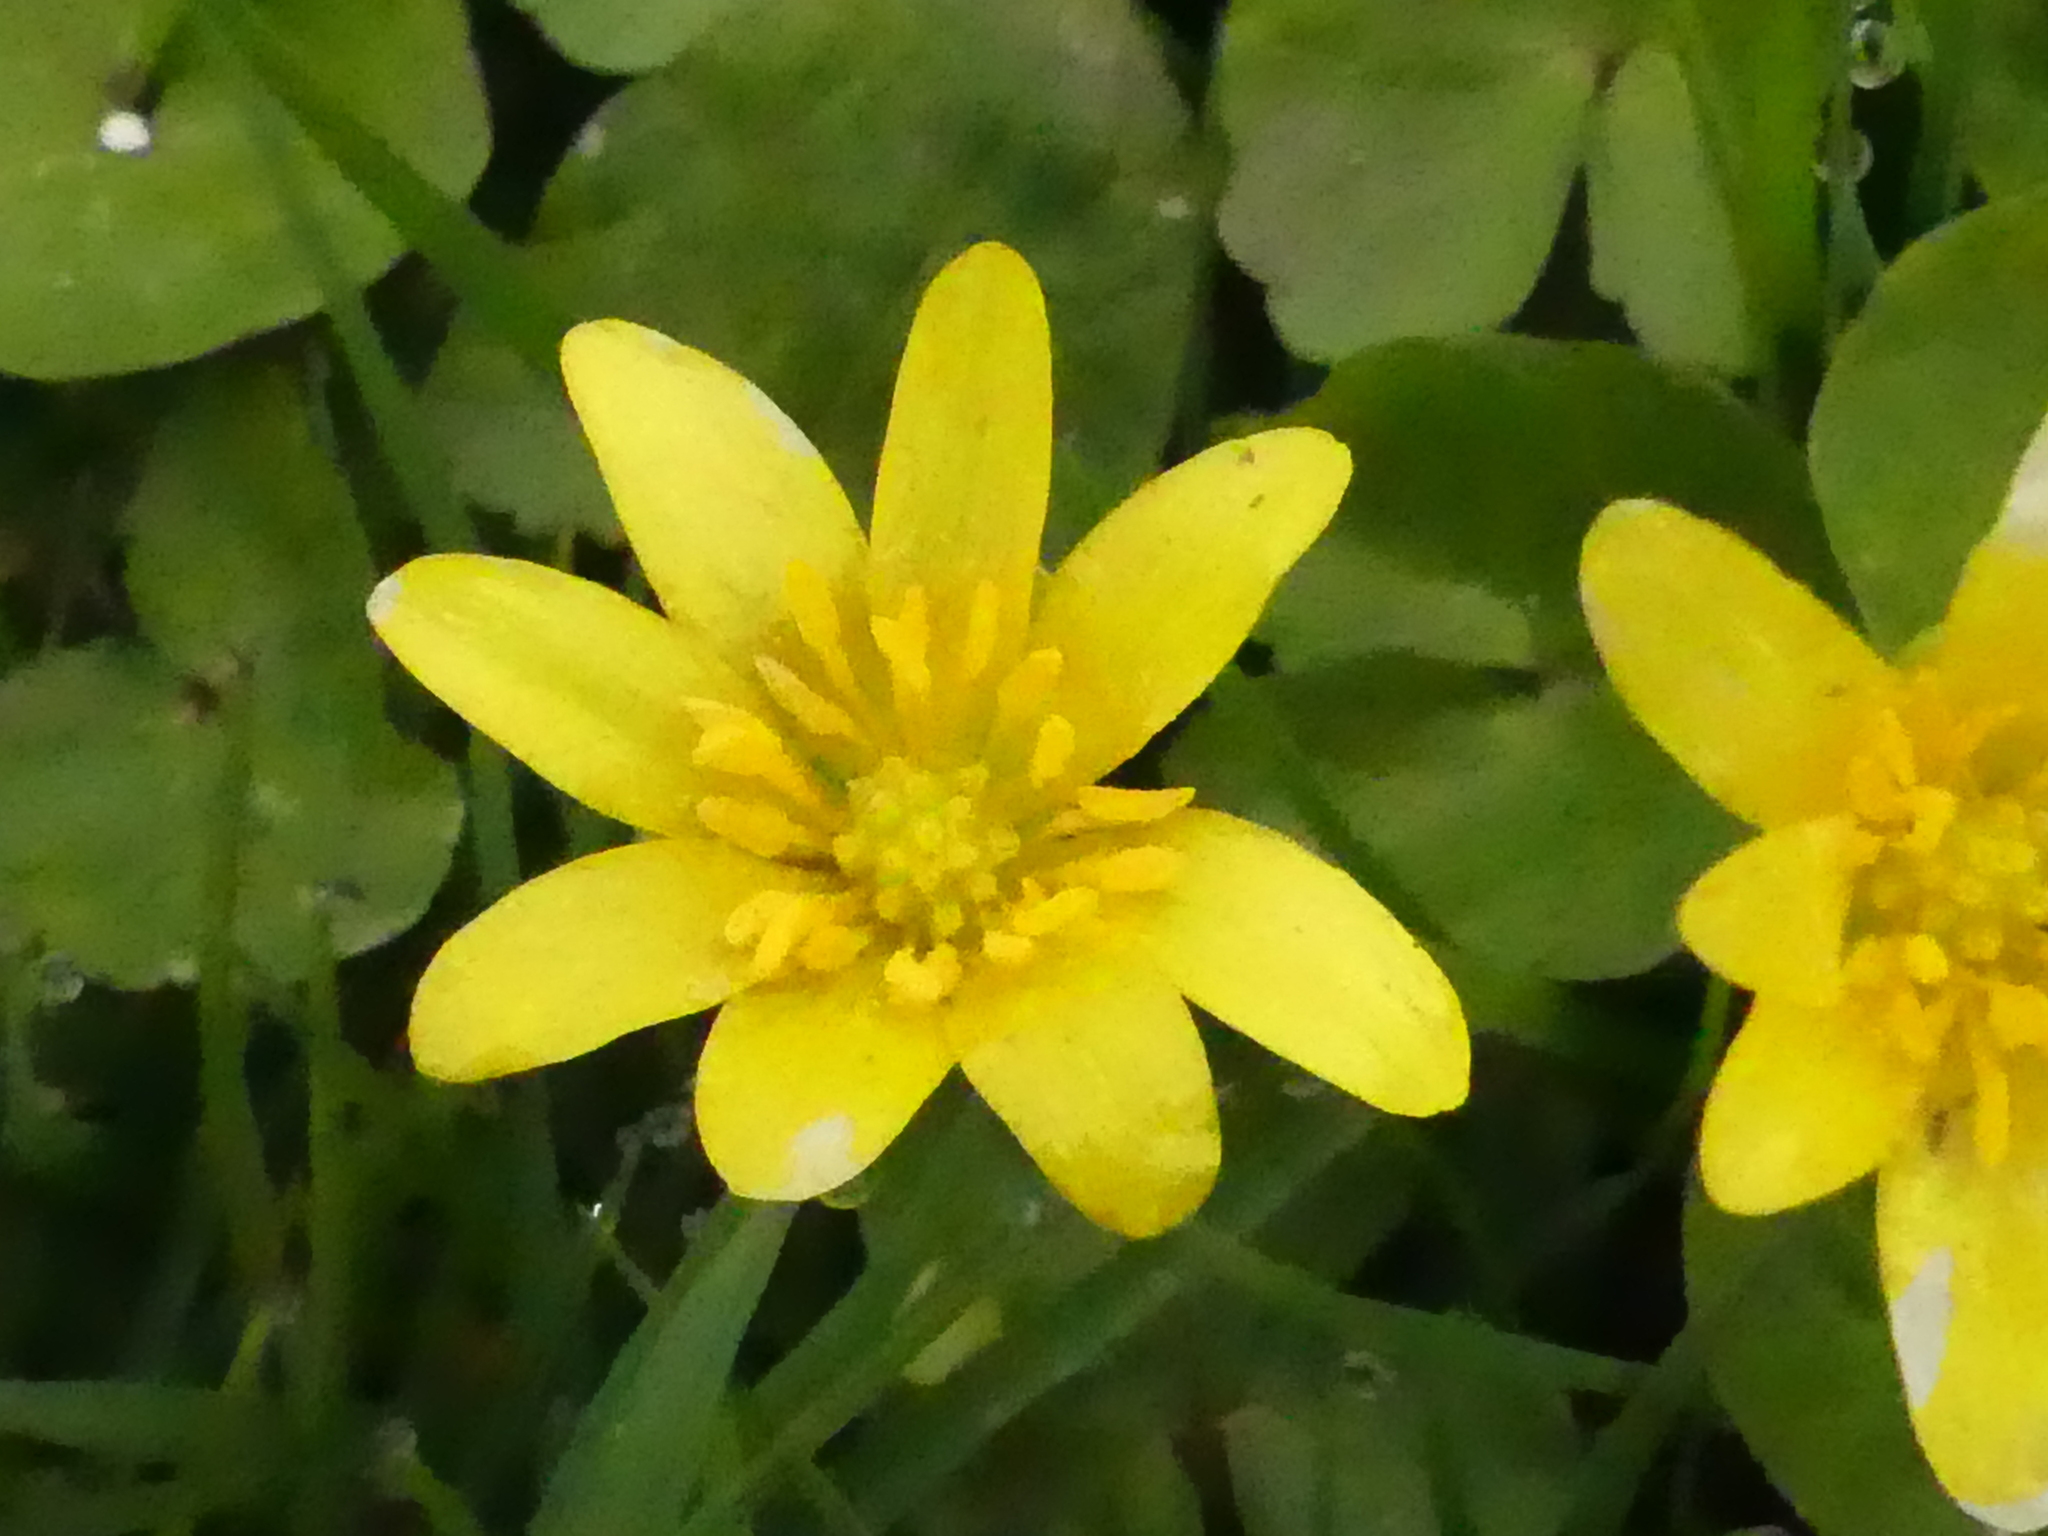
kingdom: Plantae
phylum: Tracheophyta
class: Magnoliopsida
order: Ranunculales
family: Ranunculaceae
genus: Ficaria
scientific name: Ficaria verna
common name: Lesser celandine
